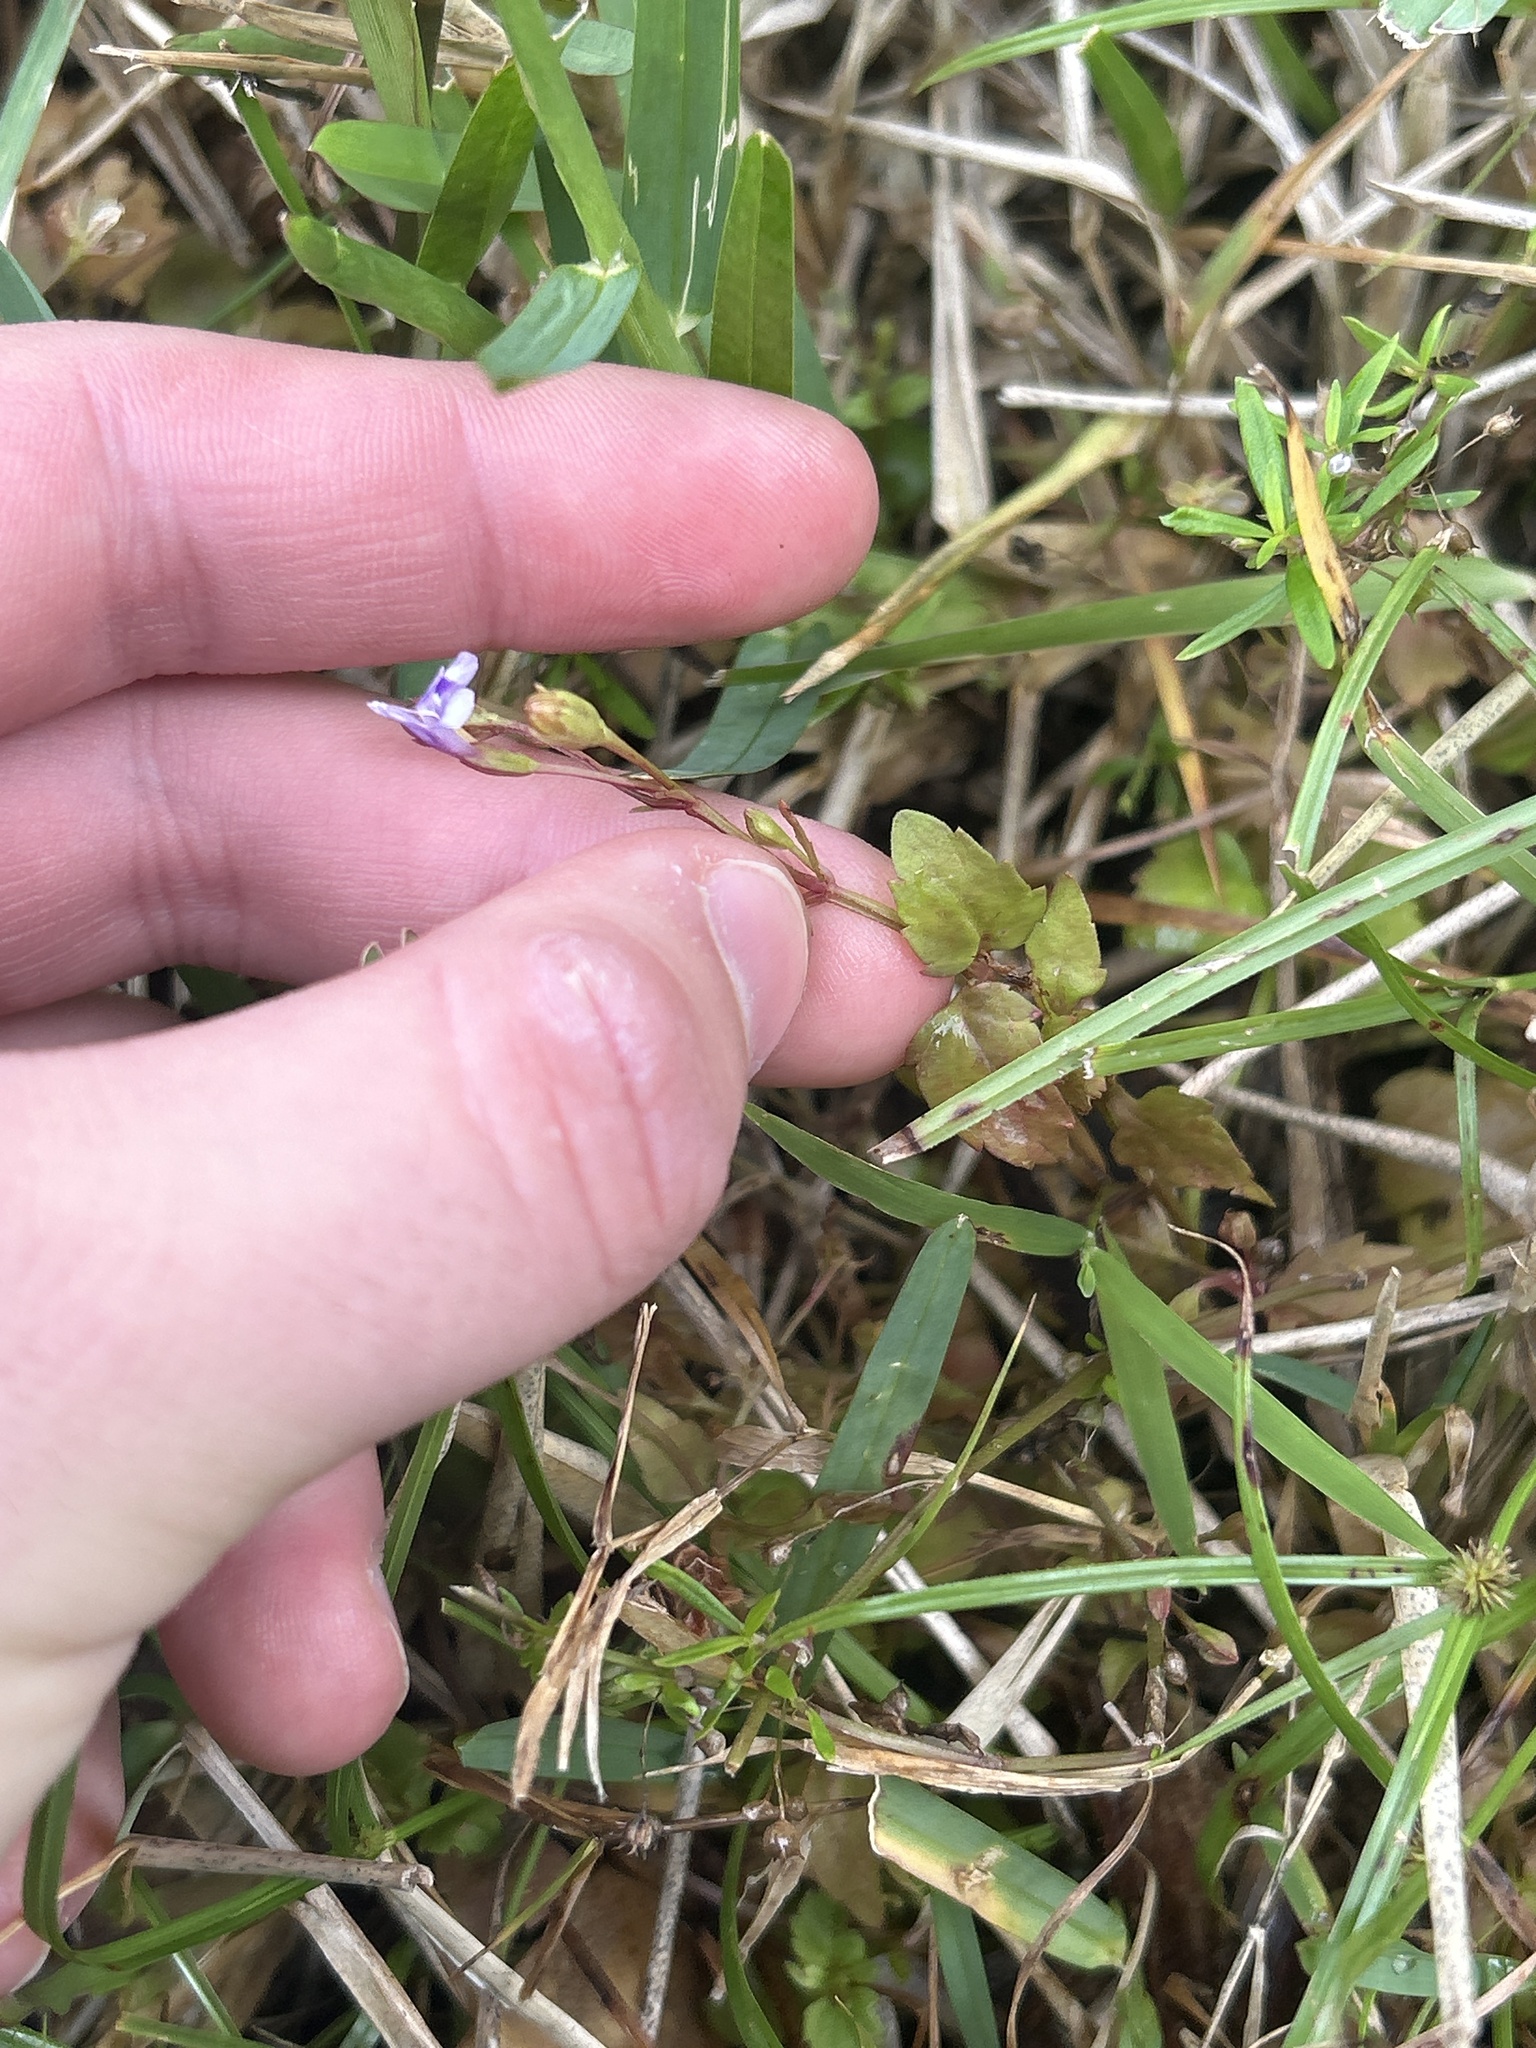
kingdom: Plantae
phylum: Tracheophyta
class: Magnoliopsida
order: Lamiales
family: Linderniaceae
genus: Torenia
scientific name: Torenia crustacea
